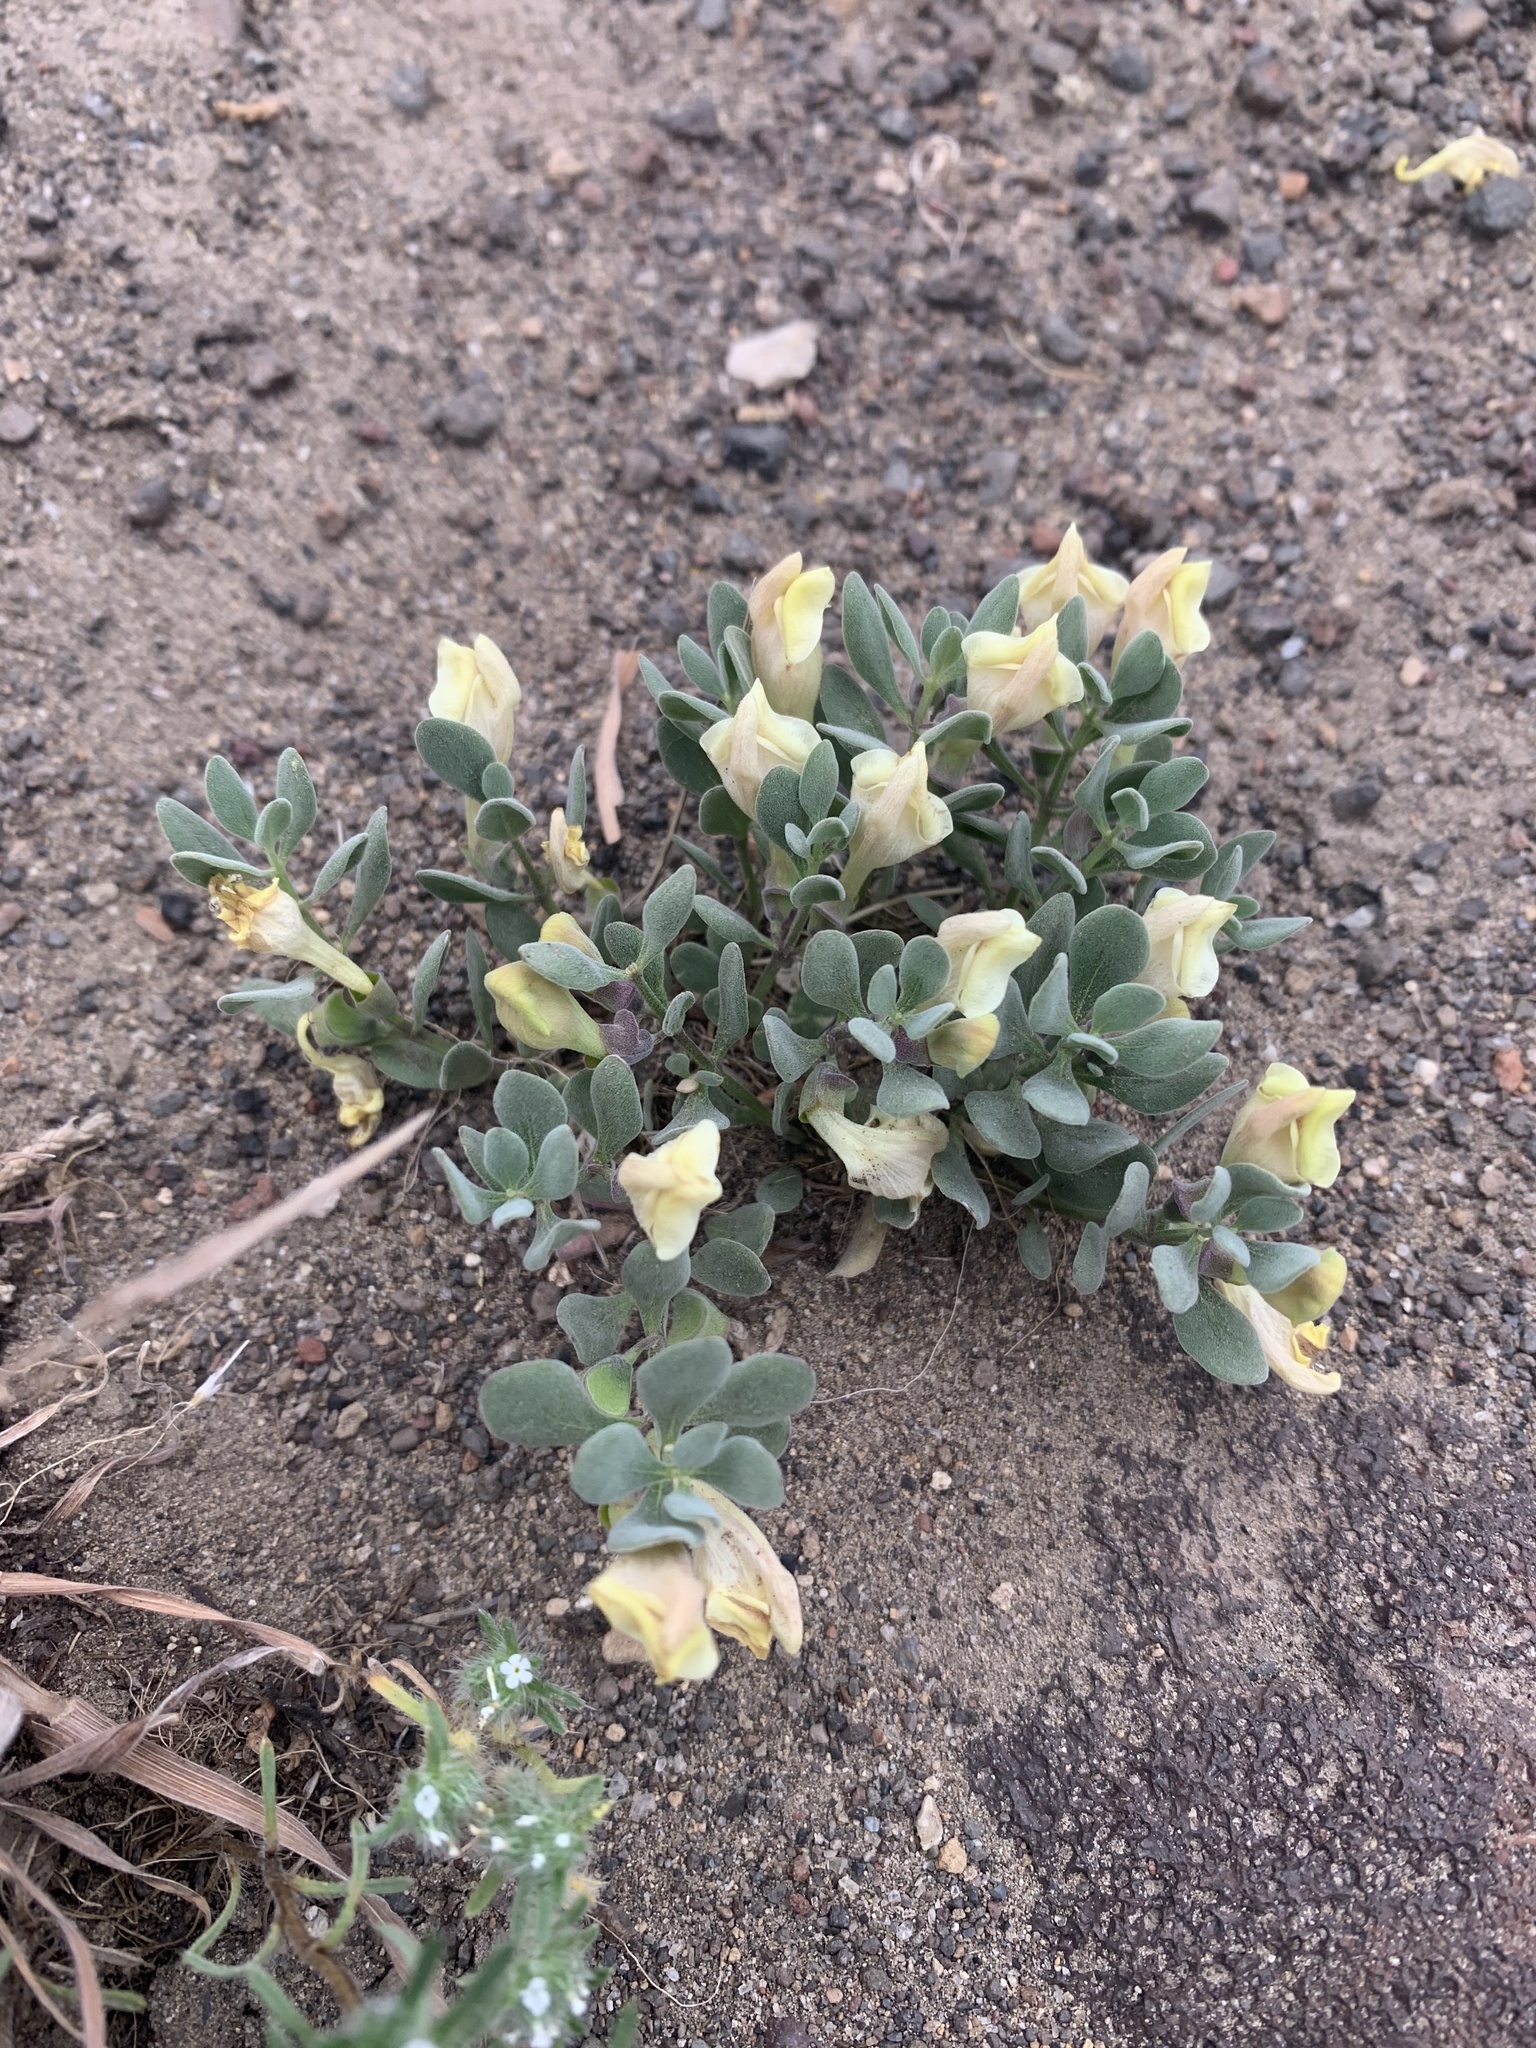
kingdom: Plantae
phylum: Tracheophyta
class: Magnoliopsida
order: Lamiales
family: Lamiaceae
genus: Scutellaria
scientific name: Scutellaria nana
